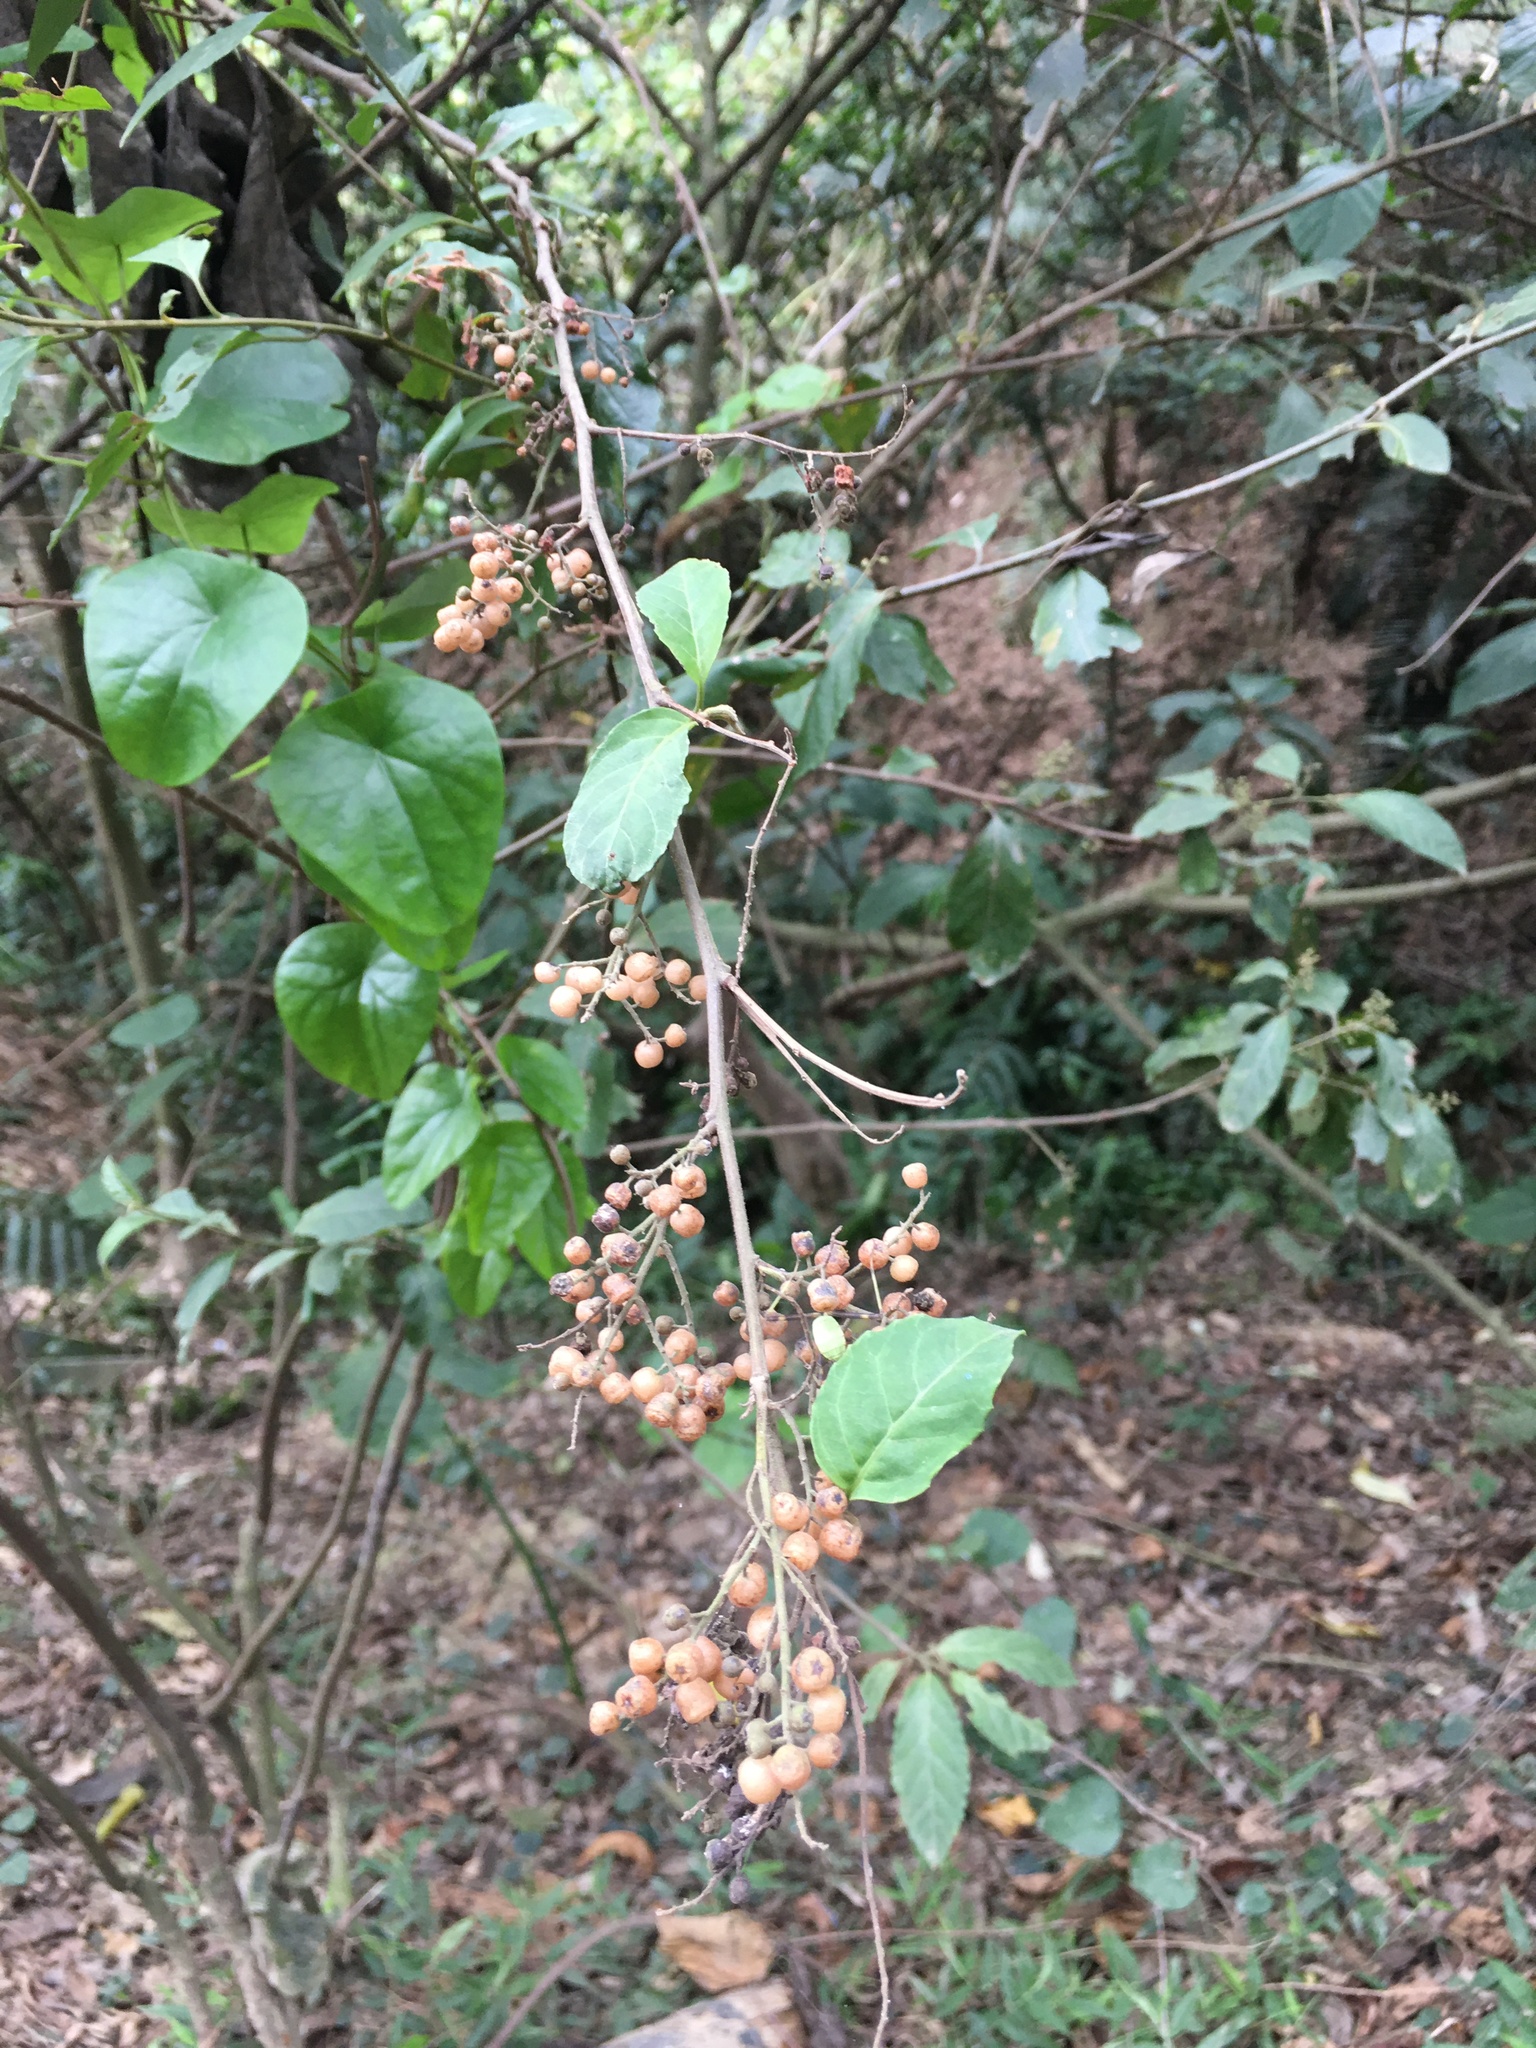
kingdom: Plantae
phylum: Tracheophyta
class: Magnoliopsida
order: Ericales
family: Primulaceae
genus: Maesa
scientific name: Maesa perlaria
